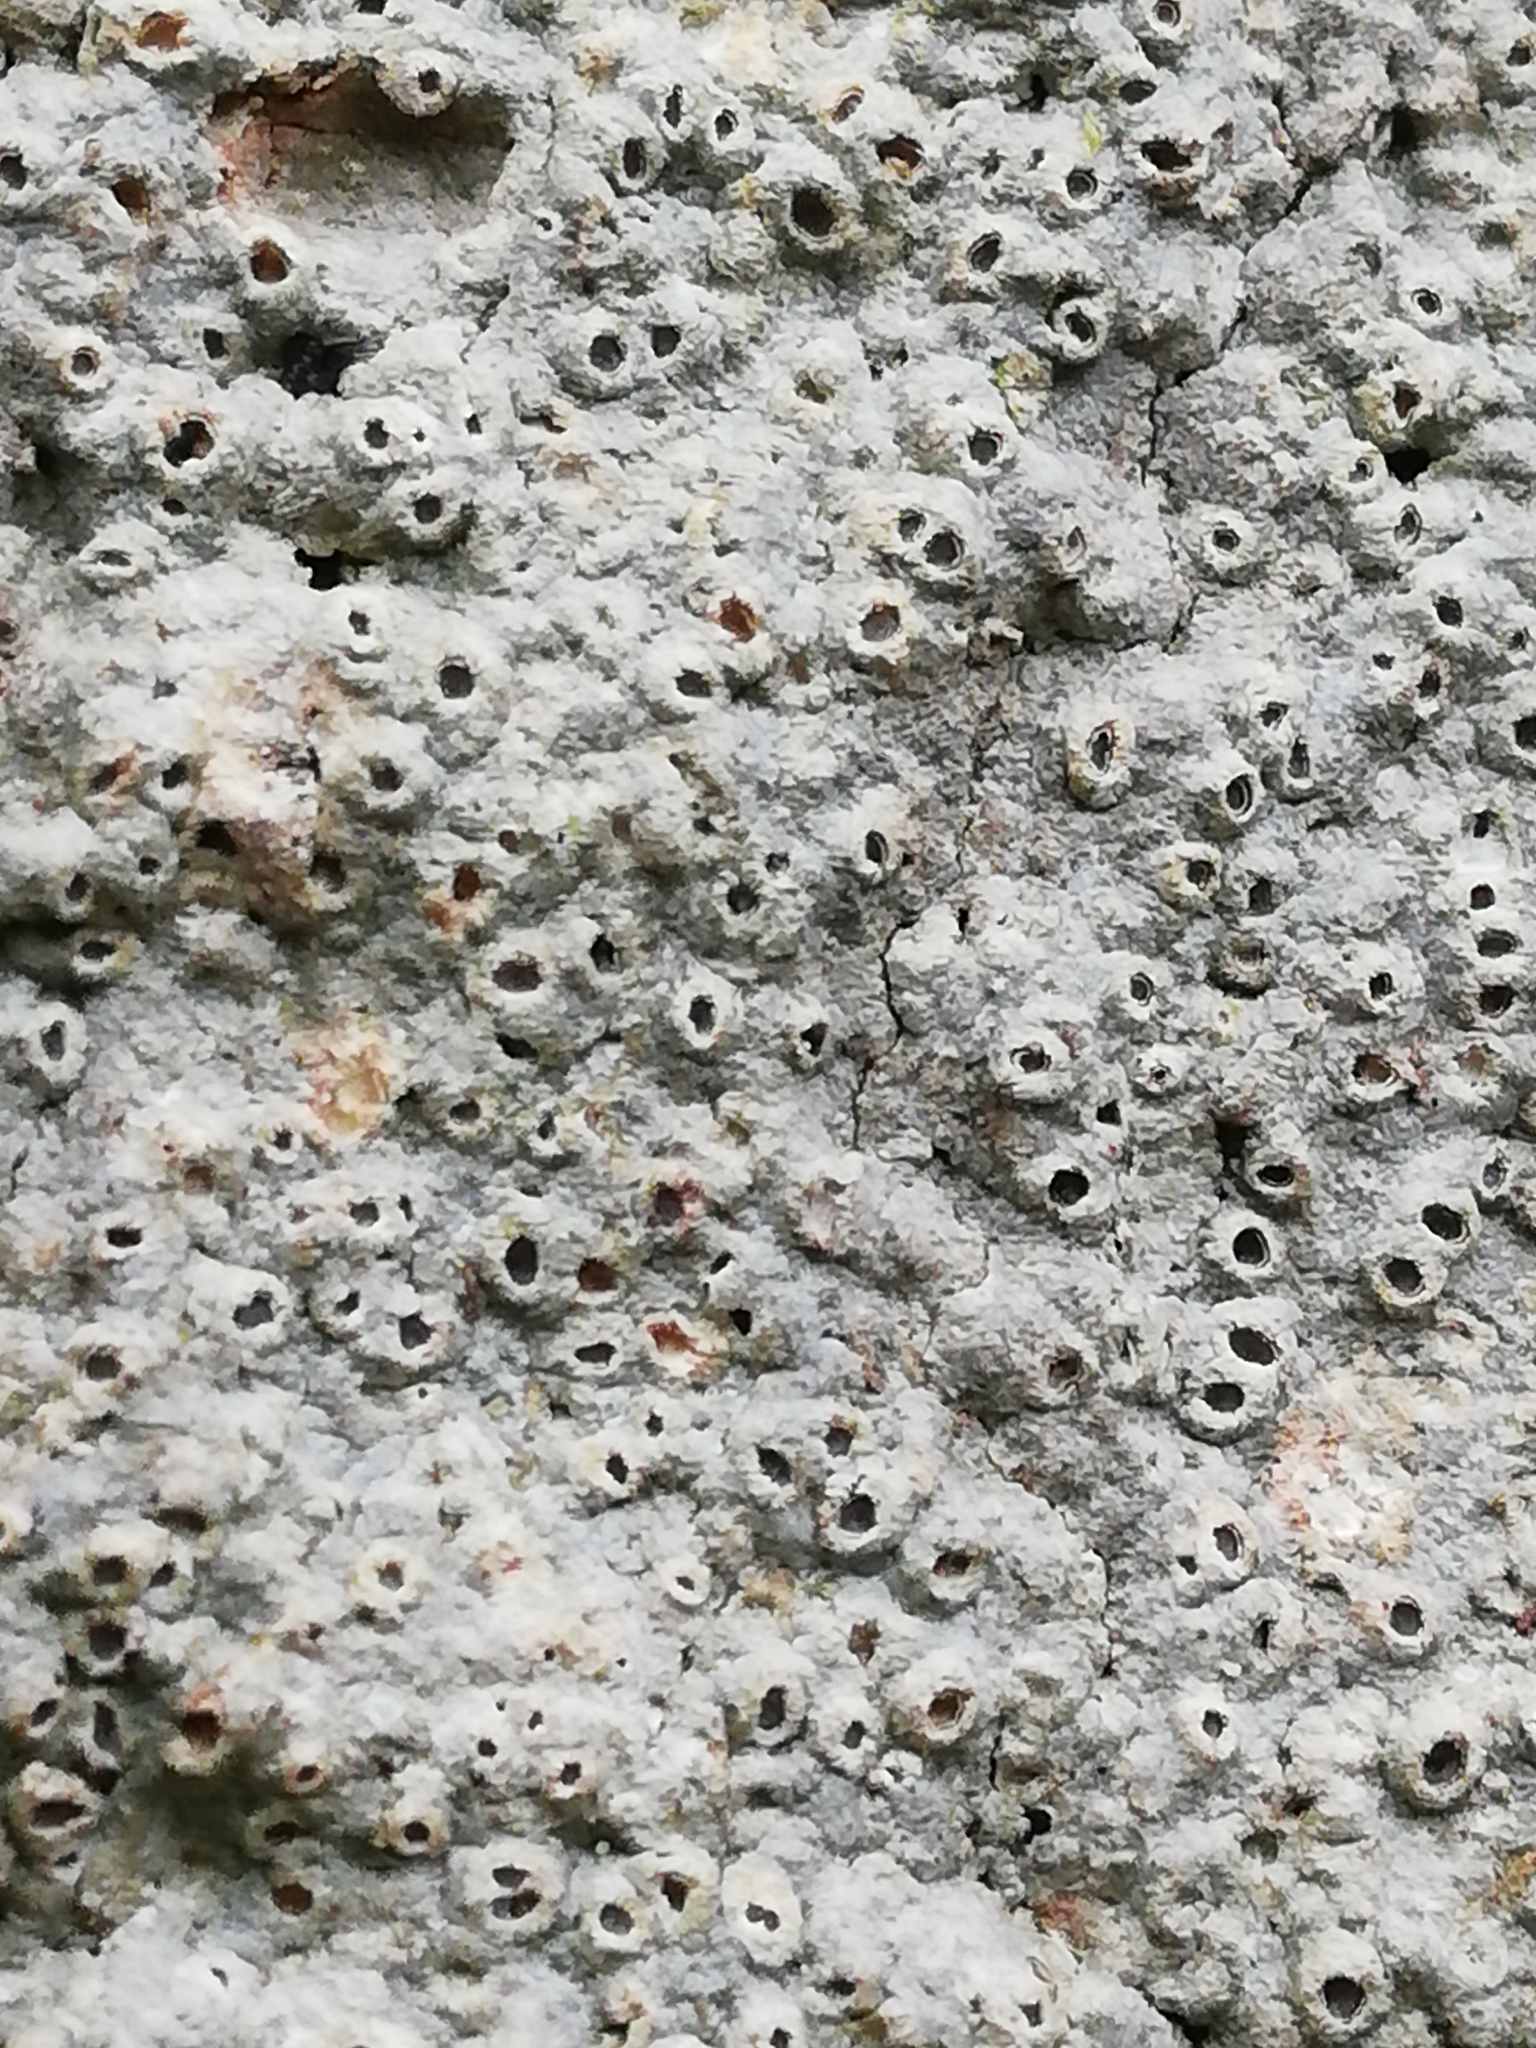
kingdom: Fungi
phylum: Ascomycota
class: Lecanoromycetes
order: Ostropales
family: Graphidaceae
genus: Thelotrema
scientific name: Thelotrema lepadinum
